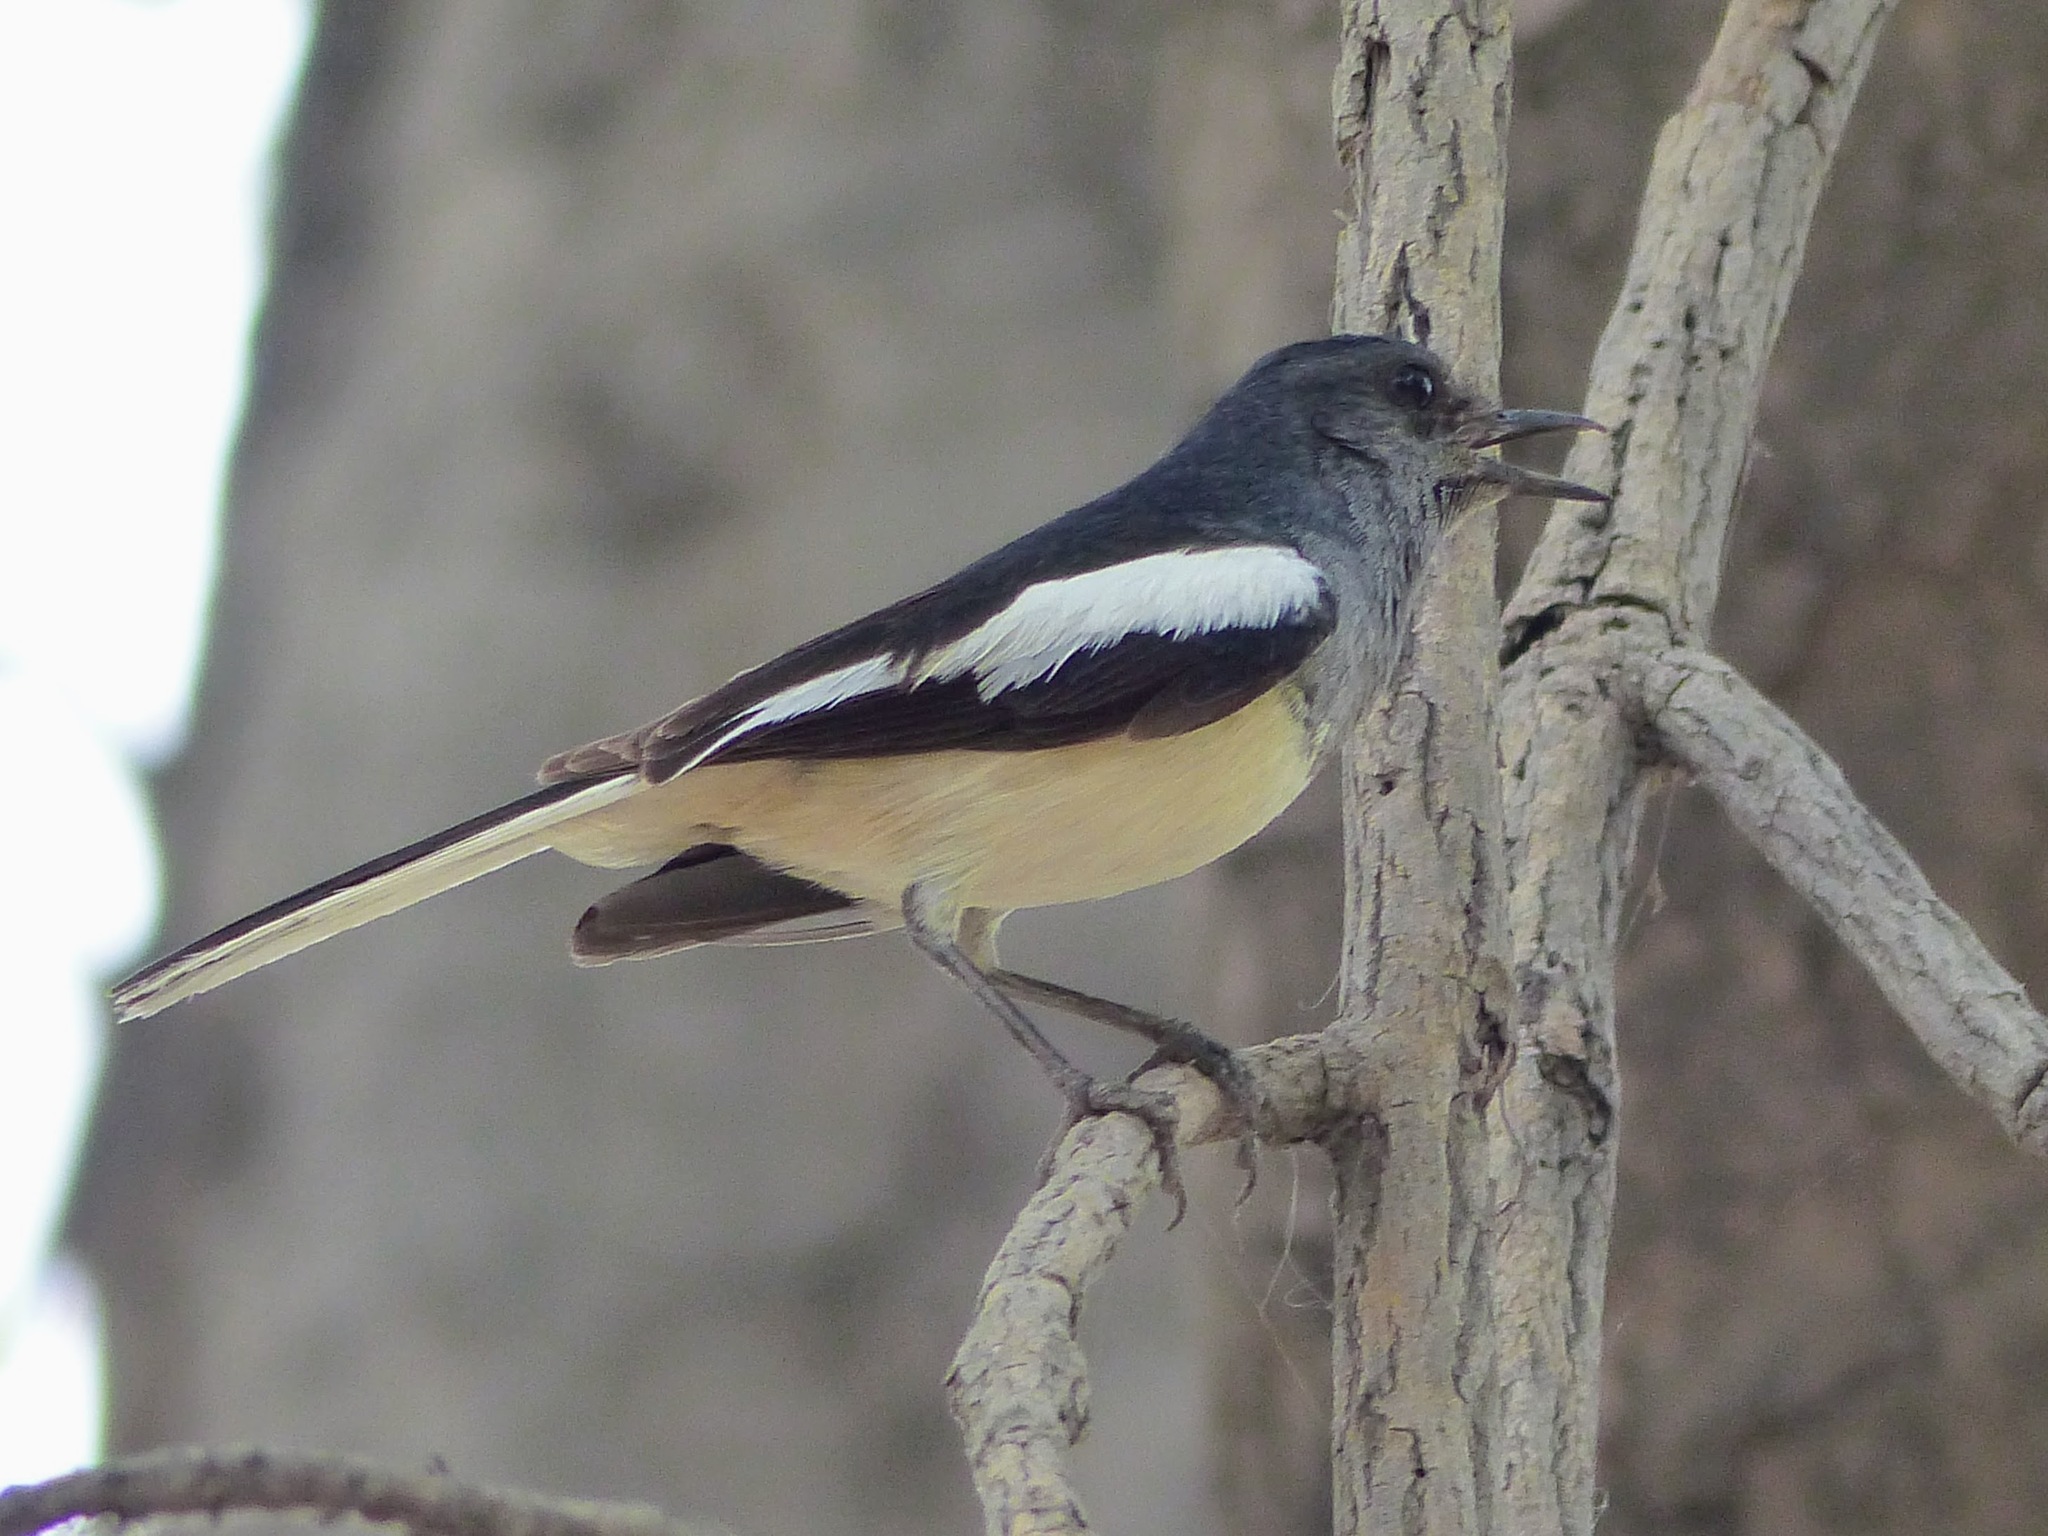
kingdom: Animalia
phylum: Chordata
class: Aves
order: Passeriformes
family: Muscicapidae
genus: Copsychus
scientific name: Copsychus saularis
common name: Oriental magpie-robin
